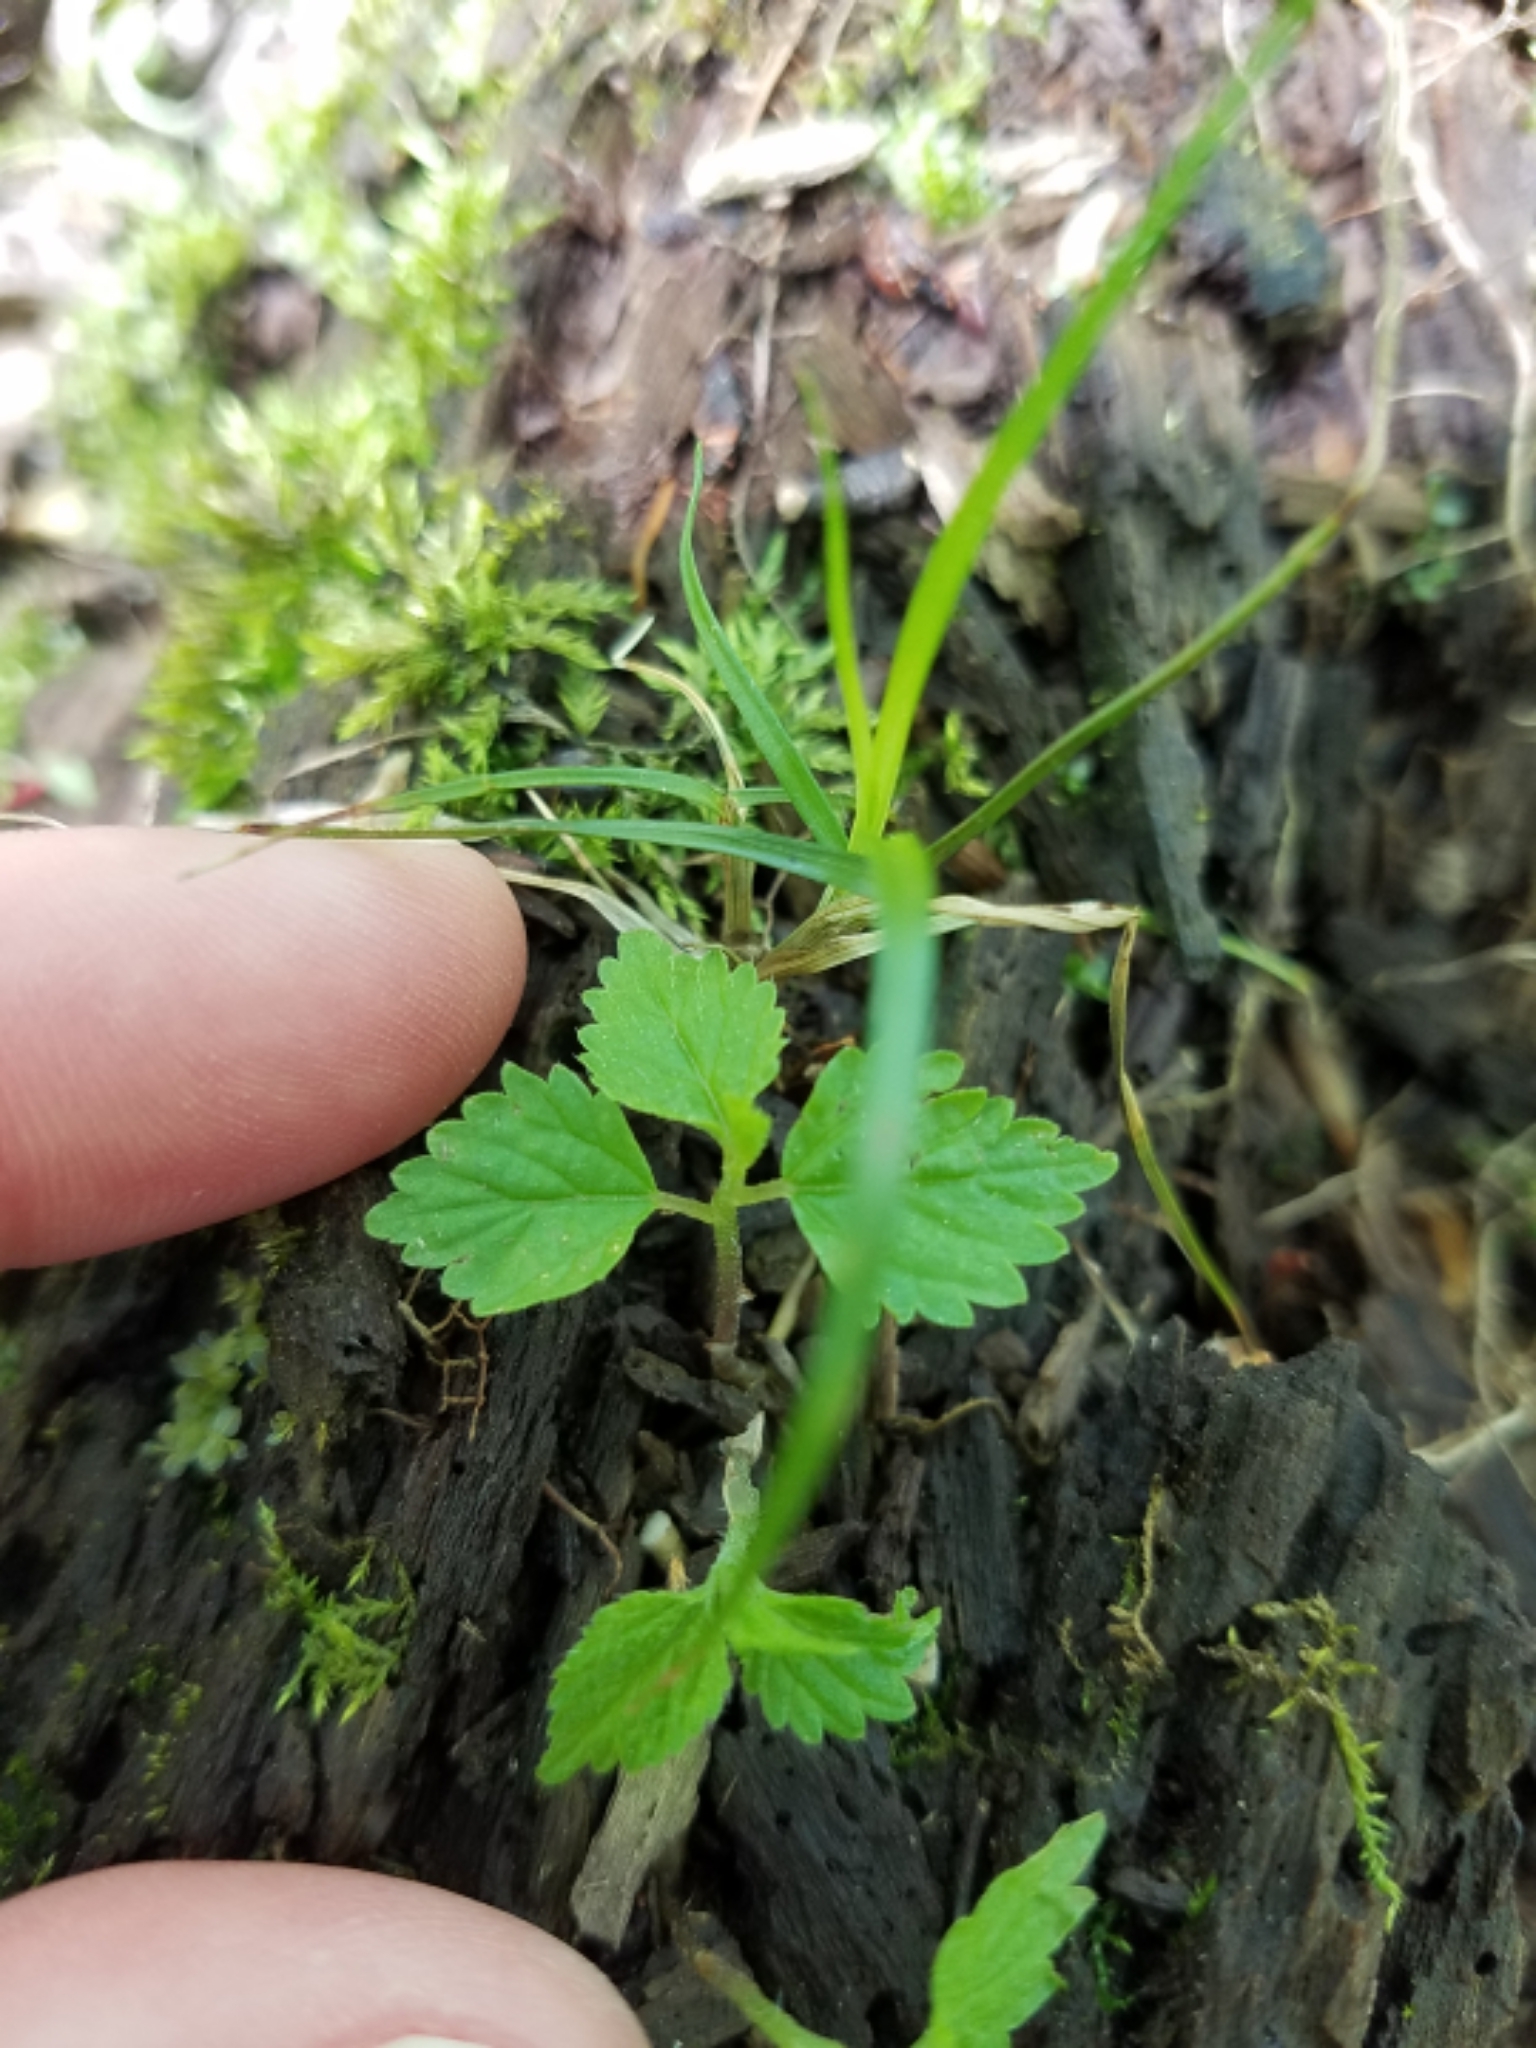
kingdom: Plantae
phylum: Tracheophyta
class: Magnoliopsida
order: Rosales
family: Urticaceae
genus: Laportea
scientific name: Laportea canadensis
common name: Canada nettle
